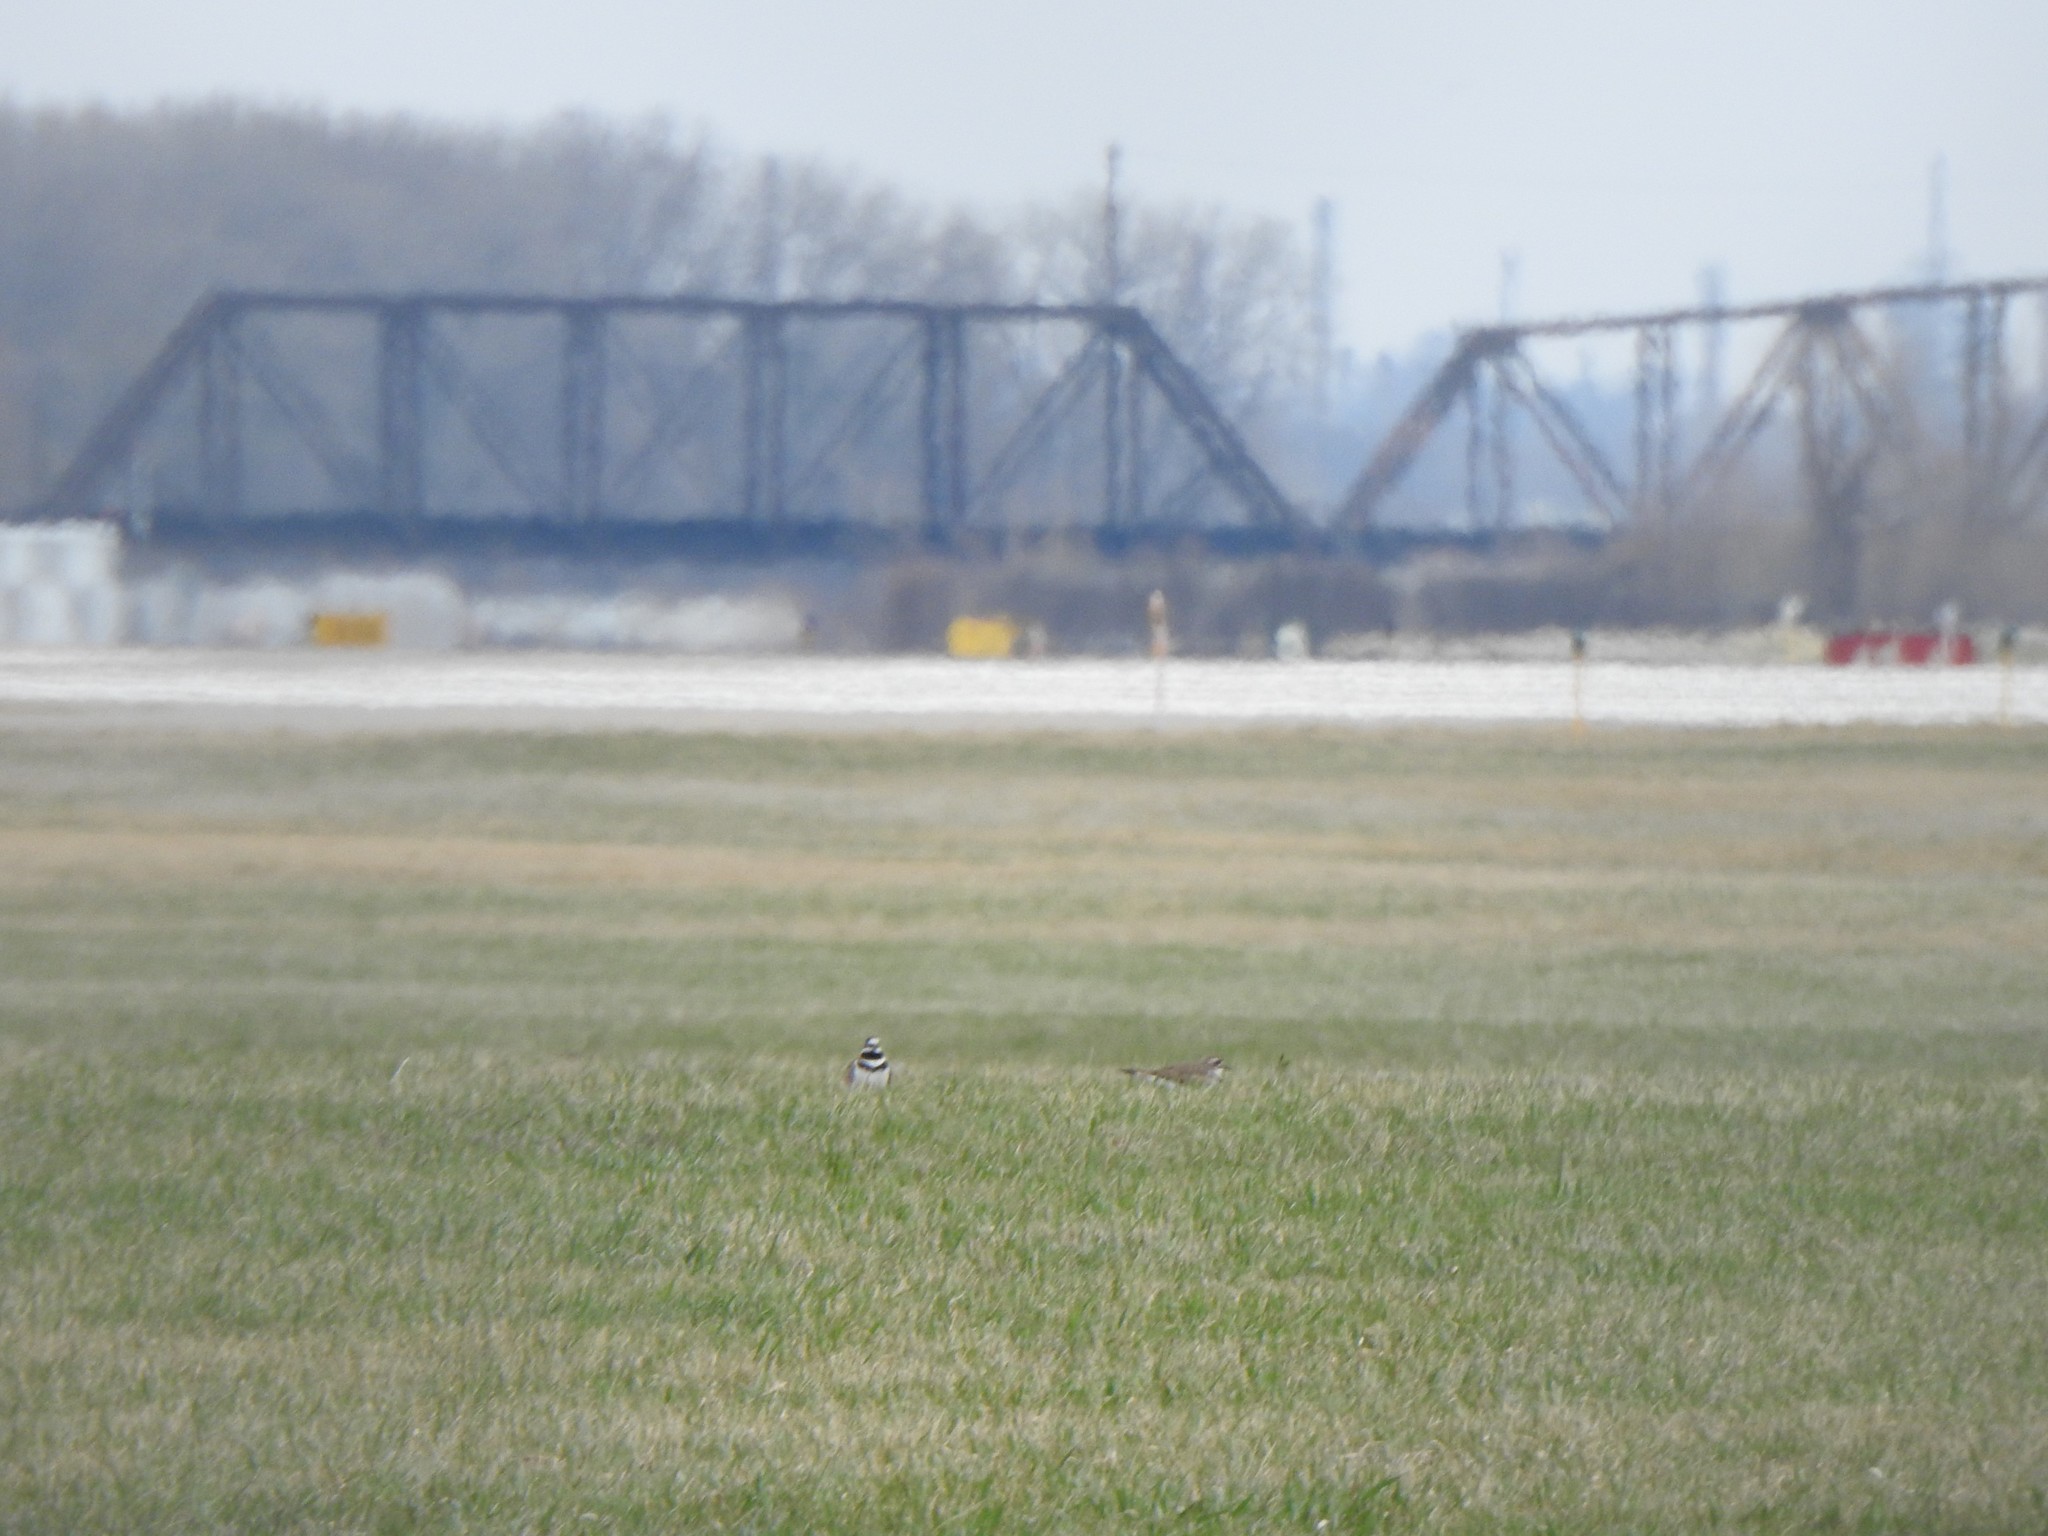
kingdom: Animalia
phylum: Chordata
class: Aves
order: Charadriiformes
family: Charadriidae
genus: Charadrius
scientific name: Charadrius vociferus
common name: Killdeer
